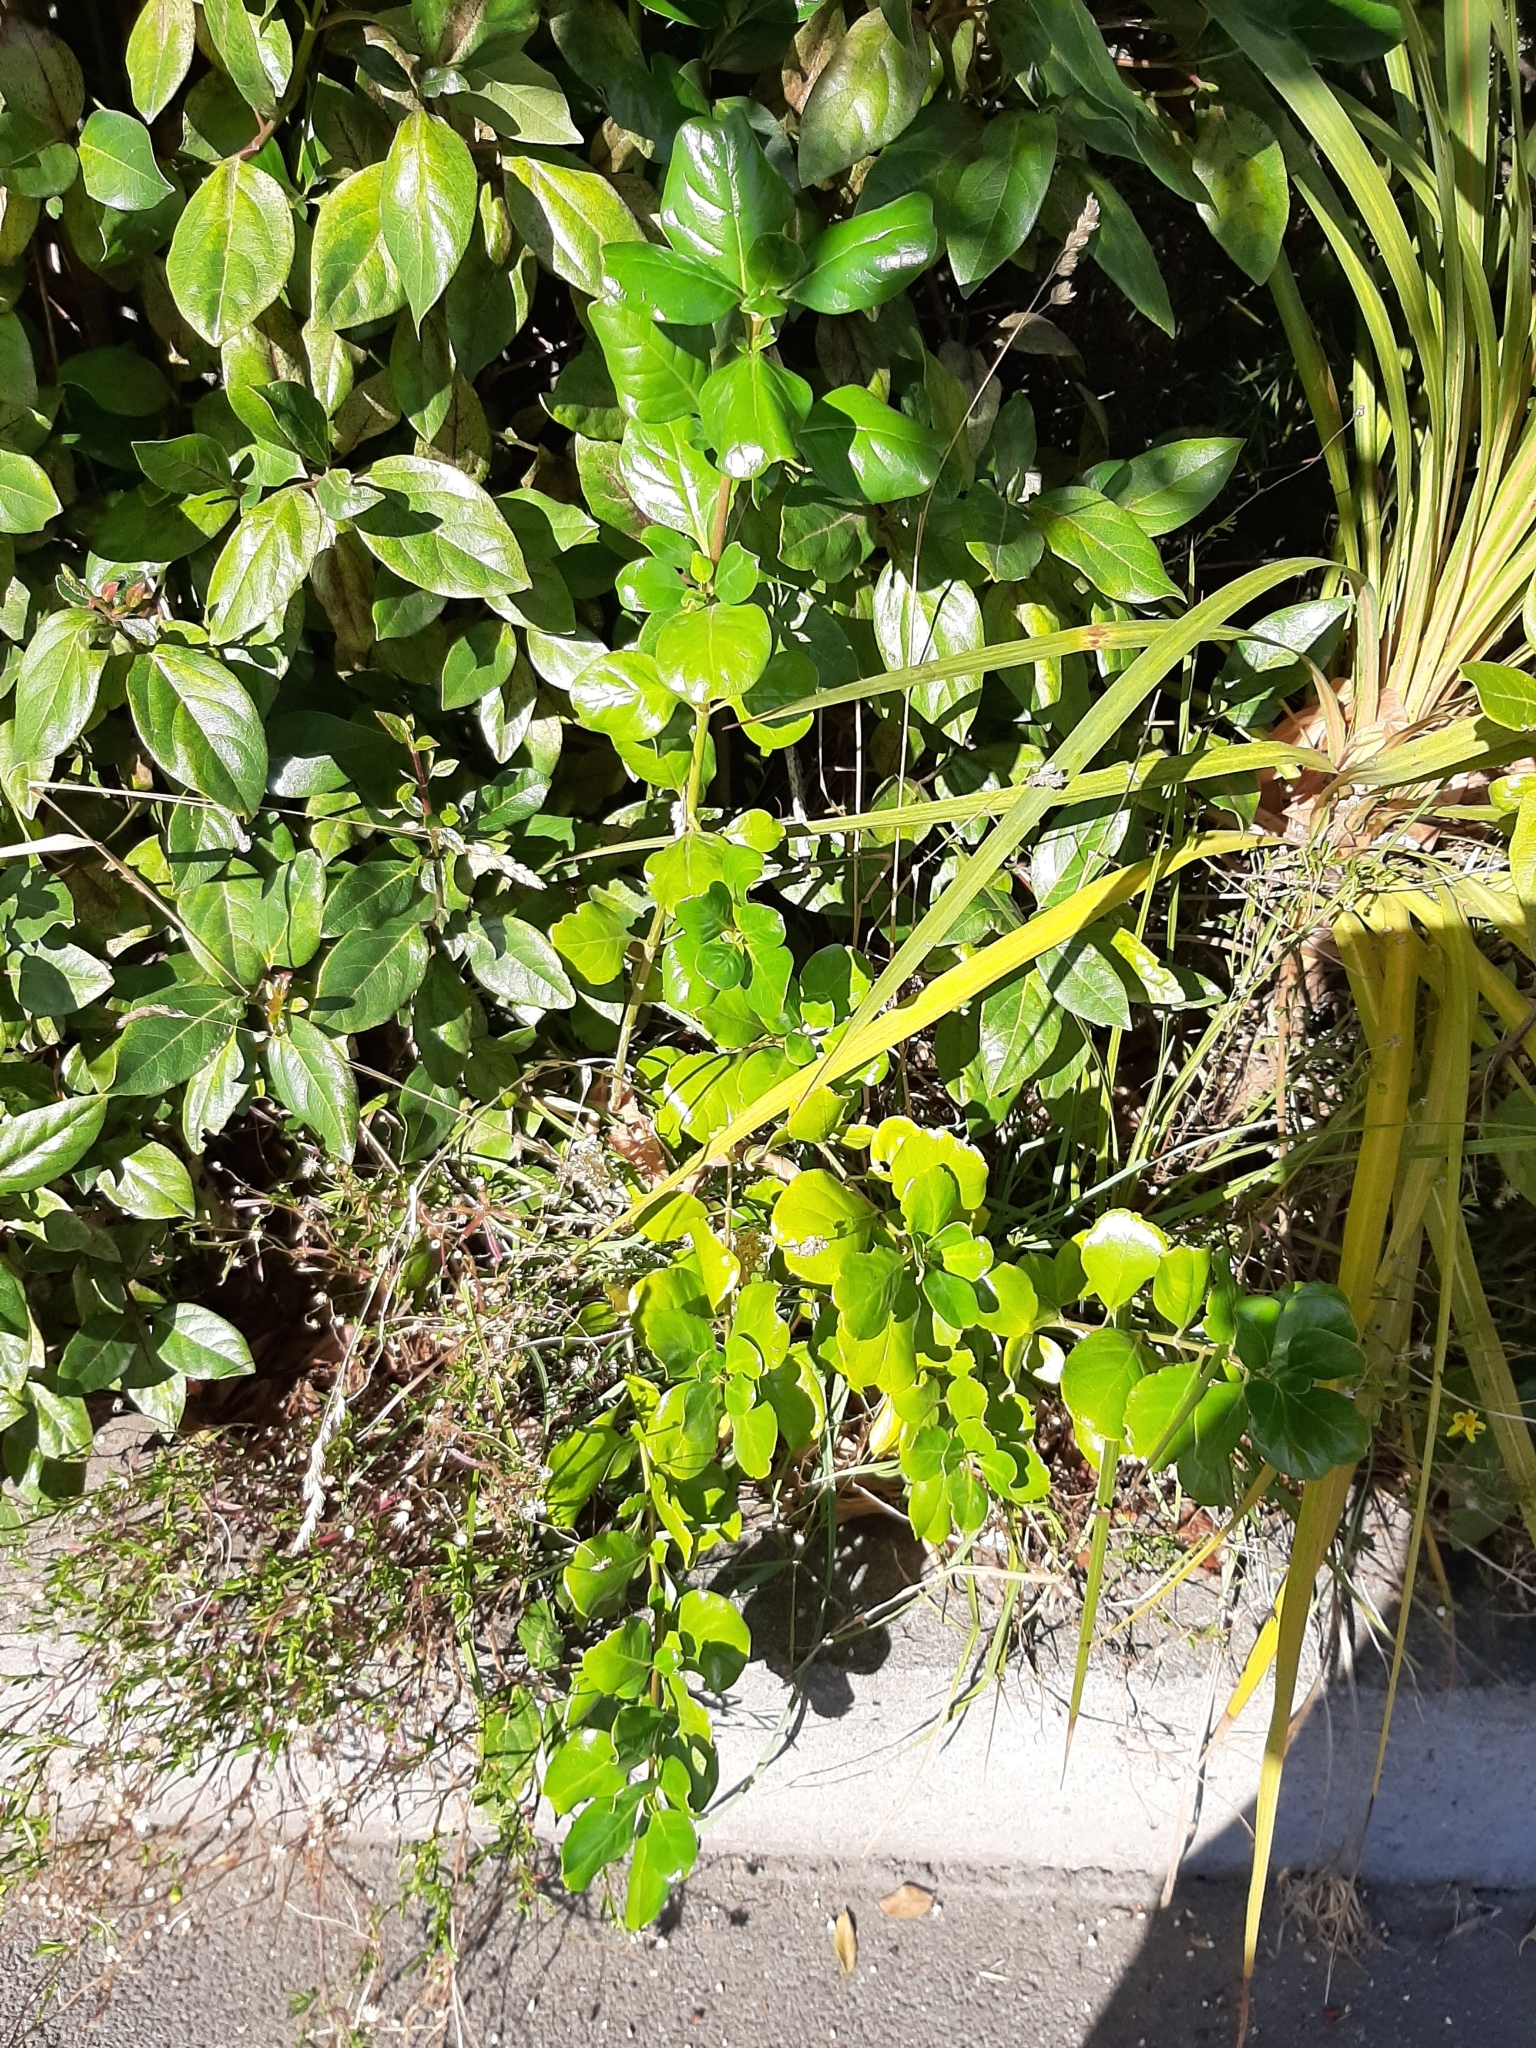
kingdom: Plantae
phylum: Tracheophyta
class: Magnoliopsida
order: Gentianales
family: Rubiaceae
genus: Coprosma
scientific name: Coprosma repens
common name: Tree bedstraw
